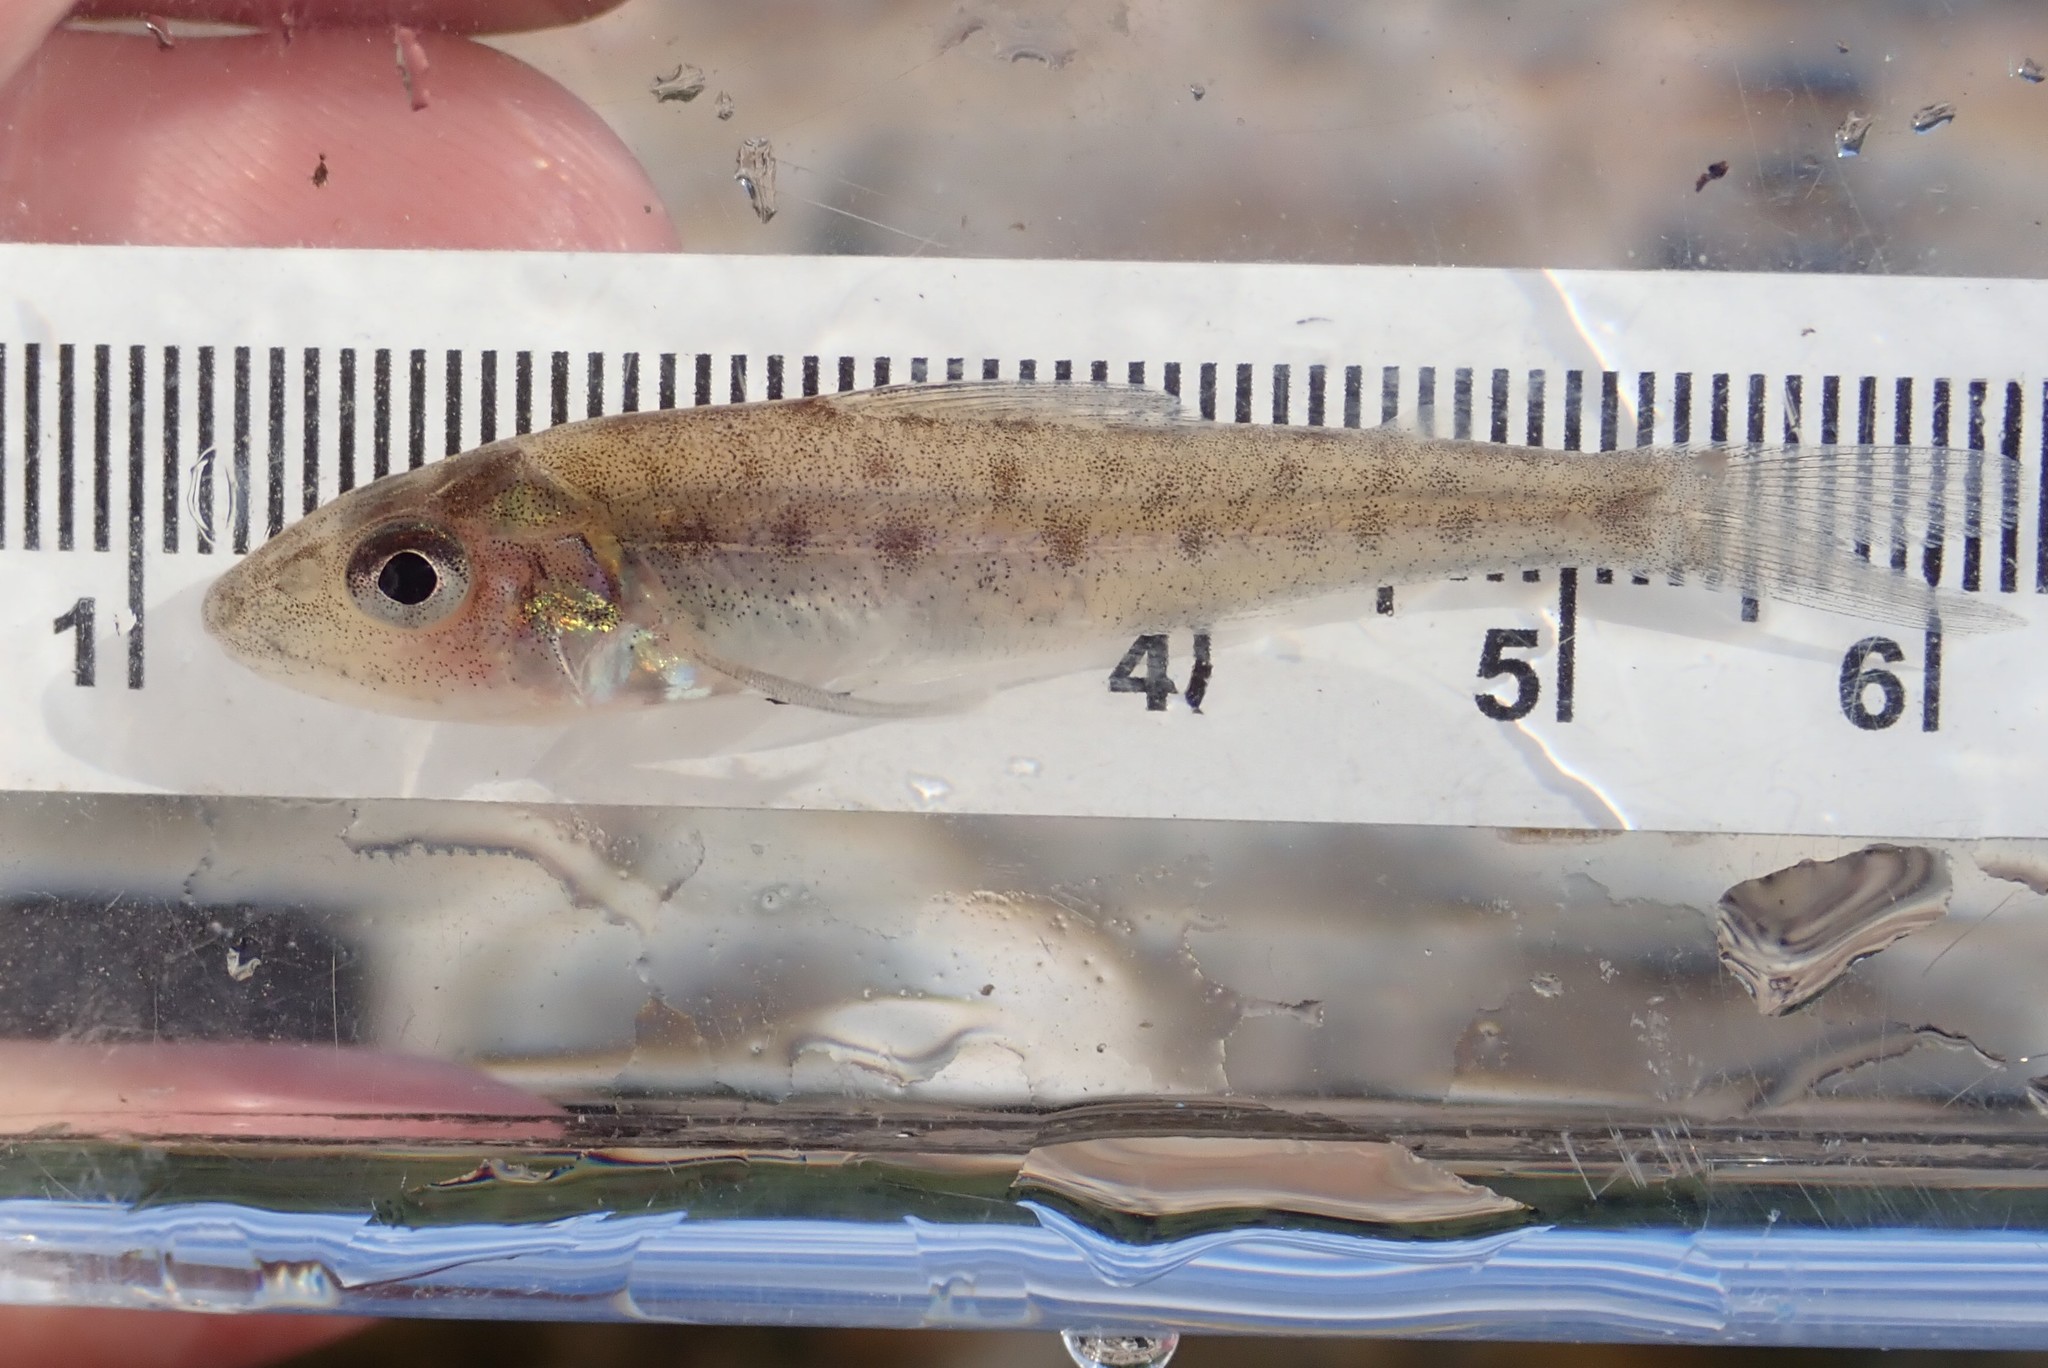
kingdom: Animalia
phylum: Chordata
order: Percopsiformes
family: Percopsidae
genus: Percopsis
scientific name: Percopsis omiscomaycus
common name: Trout-perch
